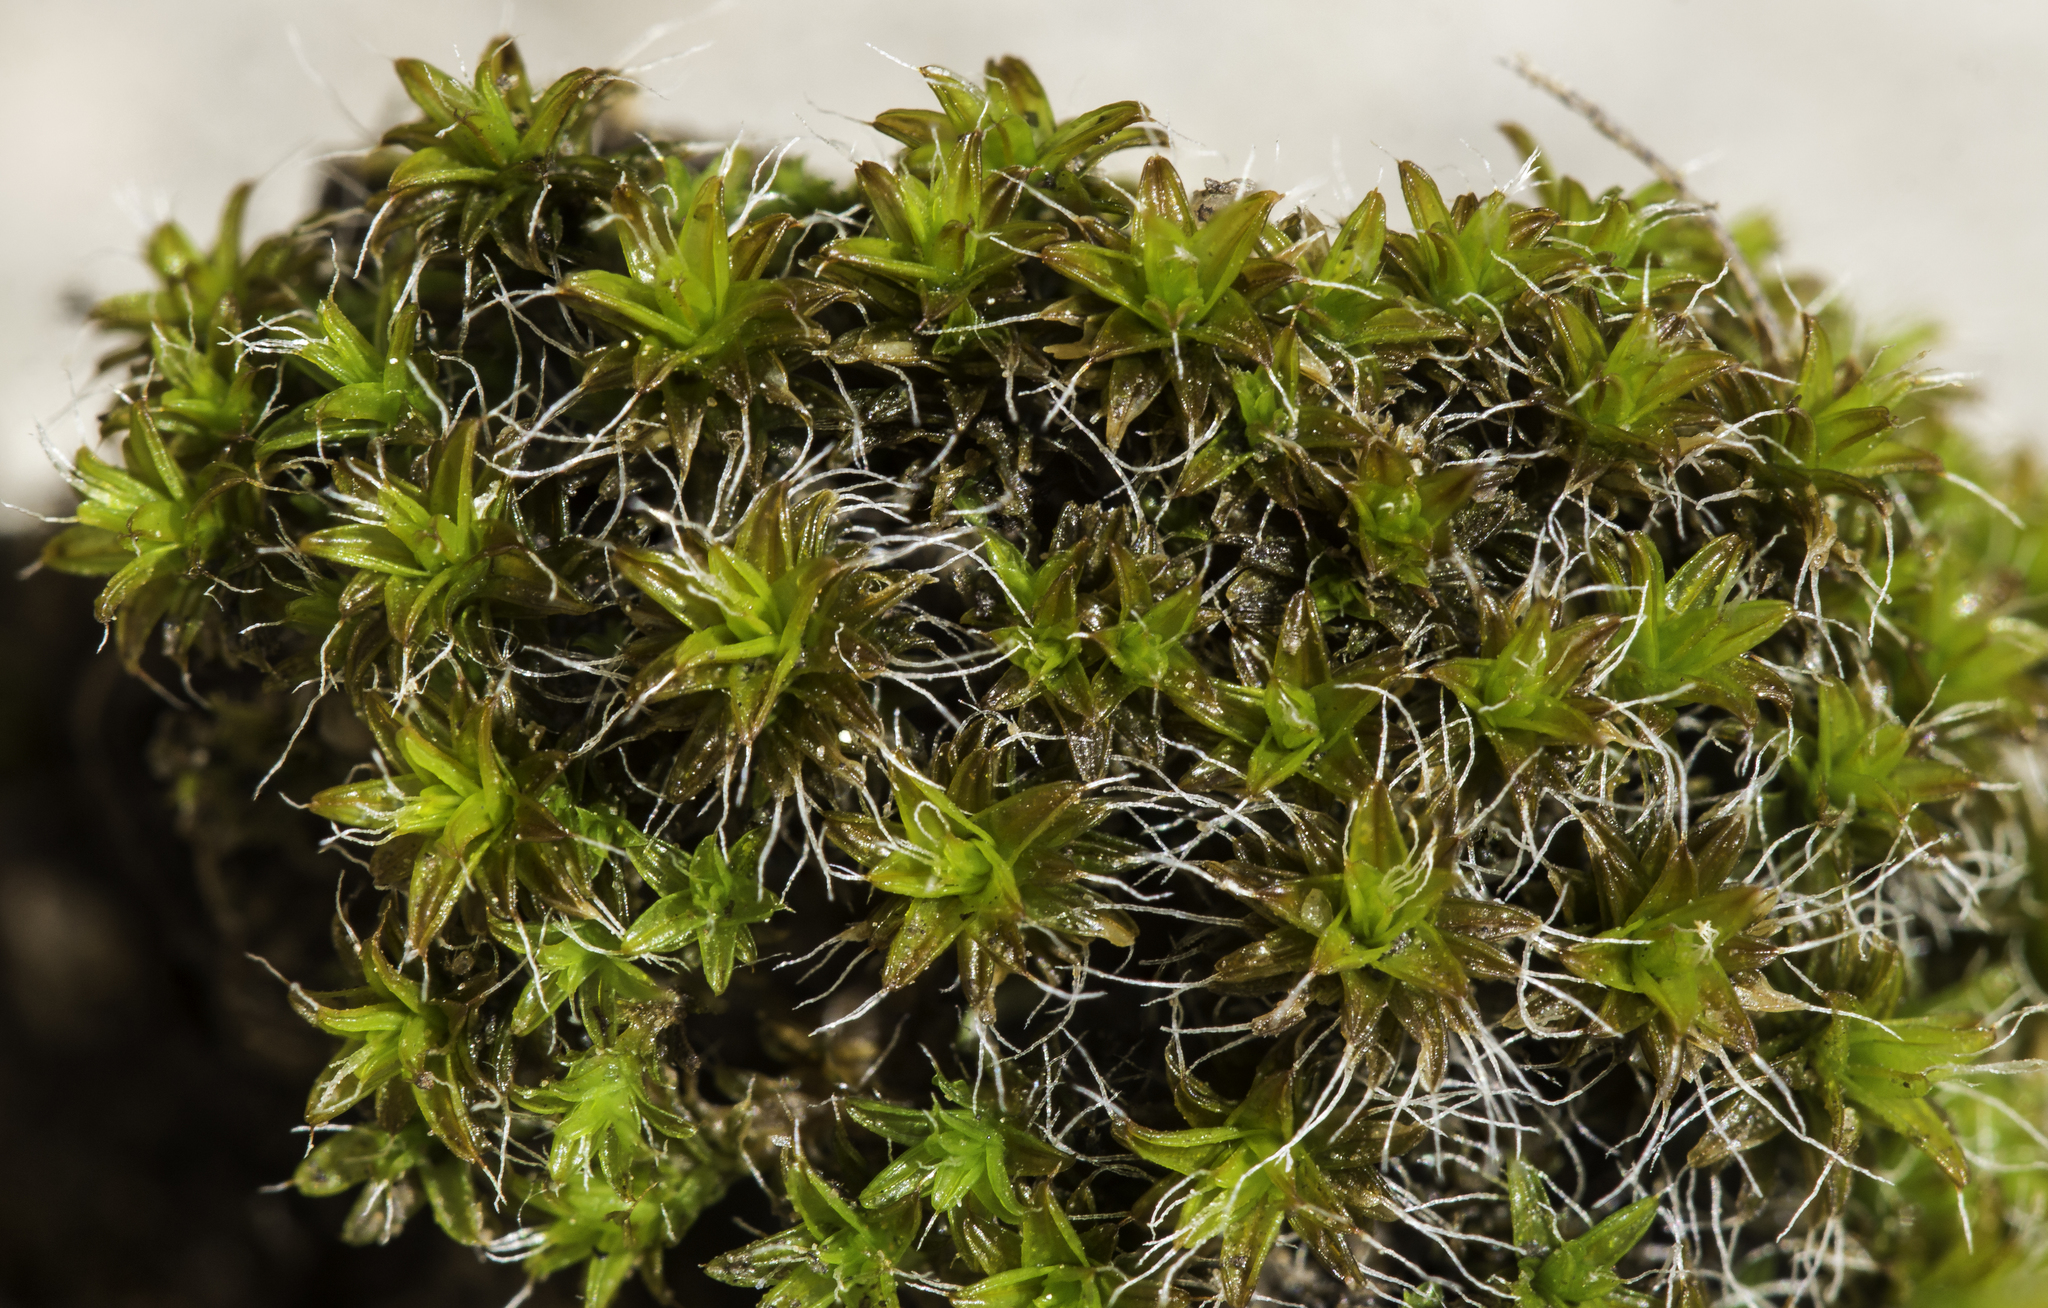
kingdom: Plantae
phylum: Bryophyta
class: Bryopsida
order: Pottiales
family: Pottiaceae
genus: Syntrichia
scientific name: Syntrichia ruralis
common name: Sidewalk screw moss
